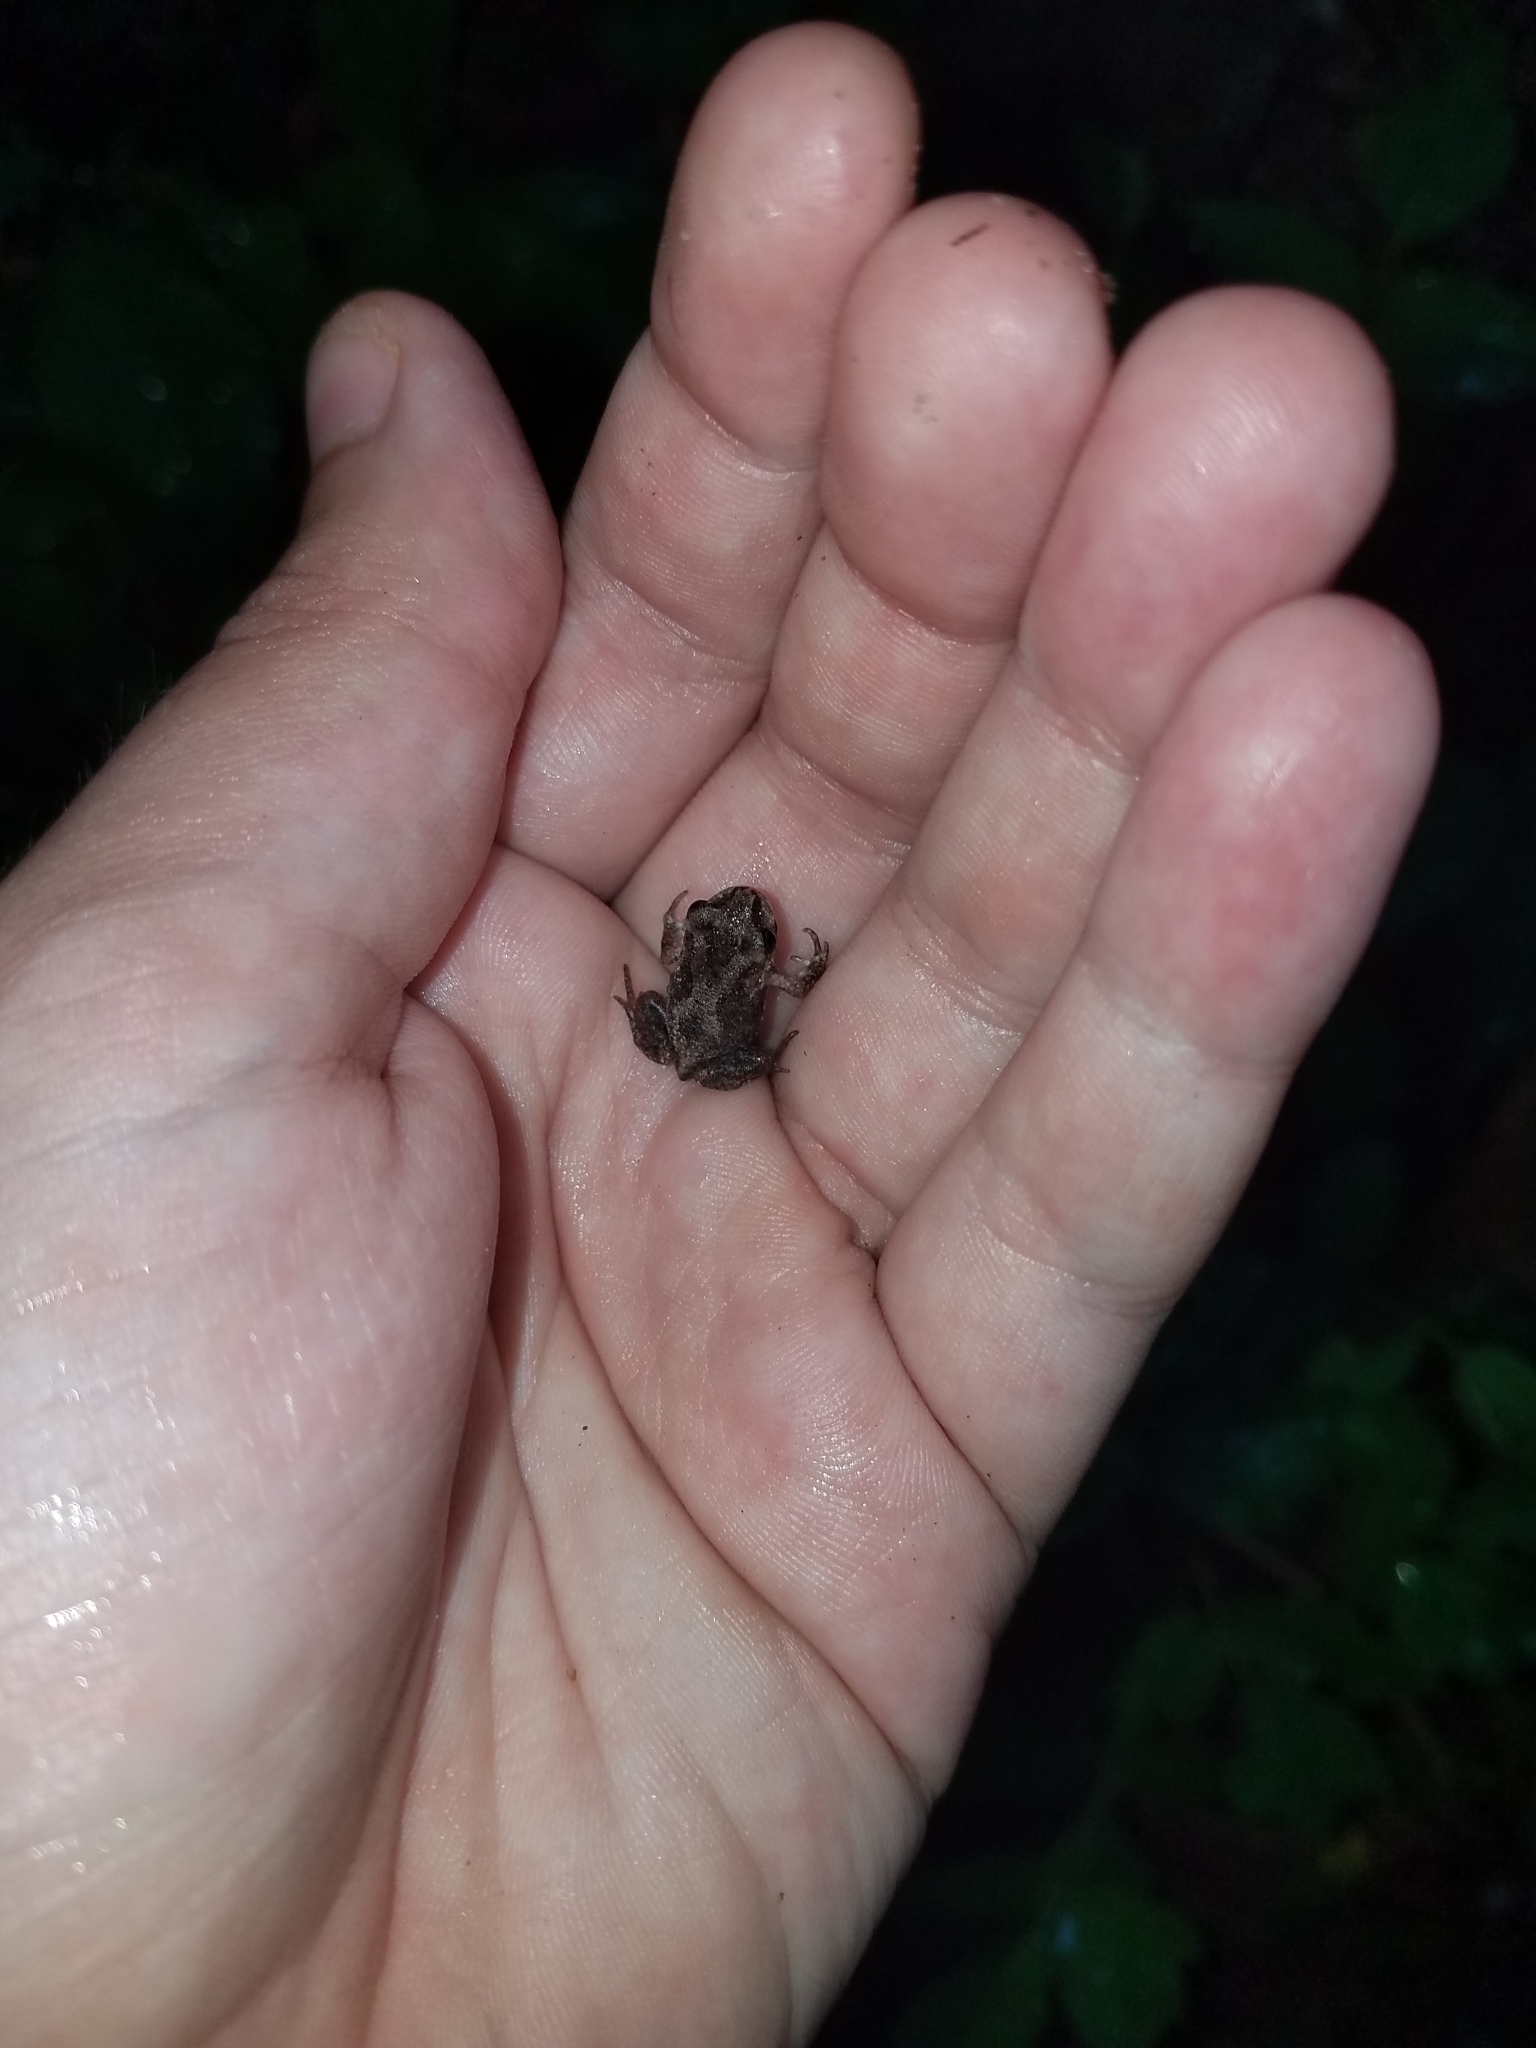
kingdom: Animalia
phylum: Chordata
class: Amphibia
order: Anura
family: Scaphiopodidae
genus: Scaphiopus
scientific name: Scaphiopus holbrookii
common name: Eastern spadefoot toad
